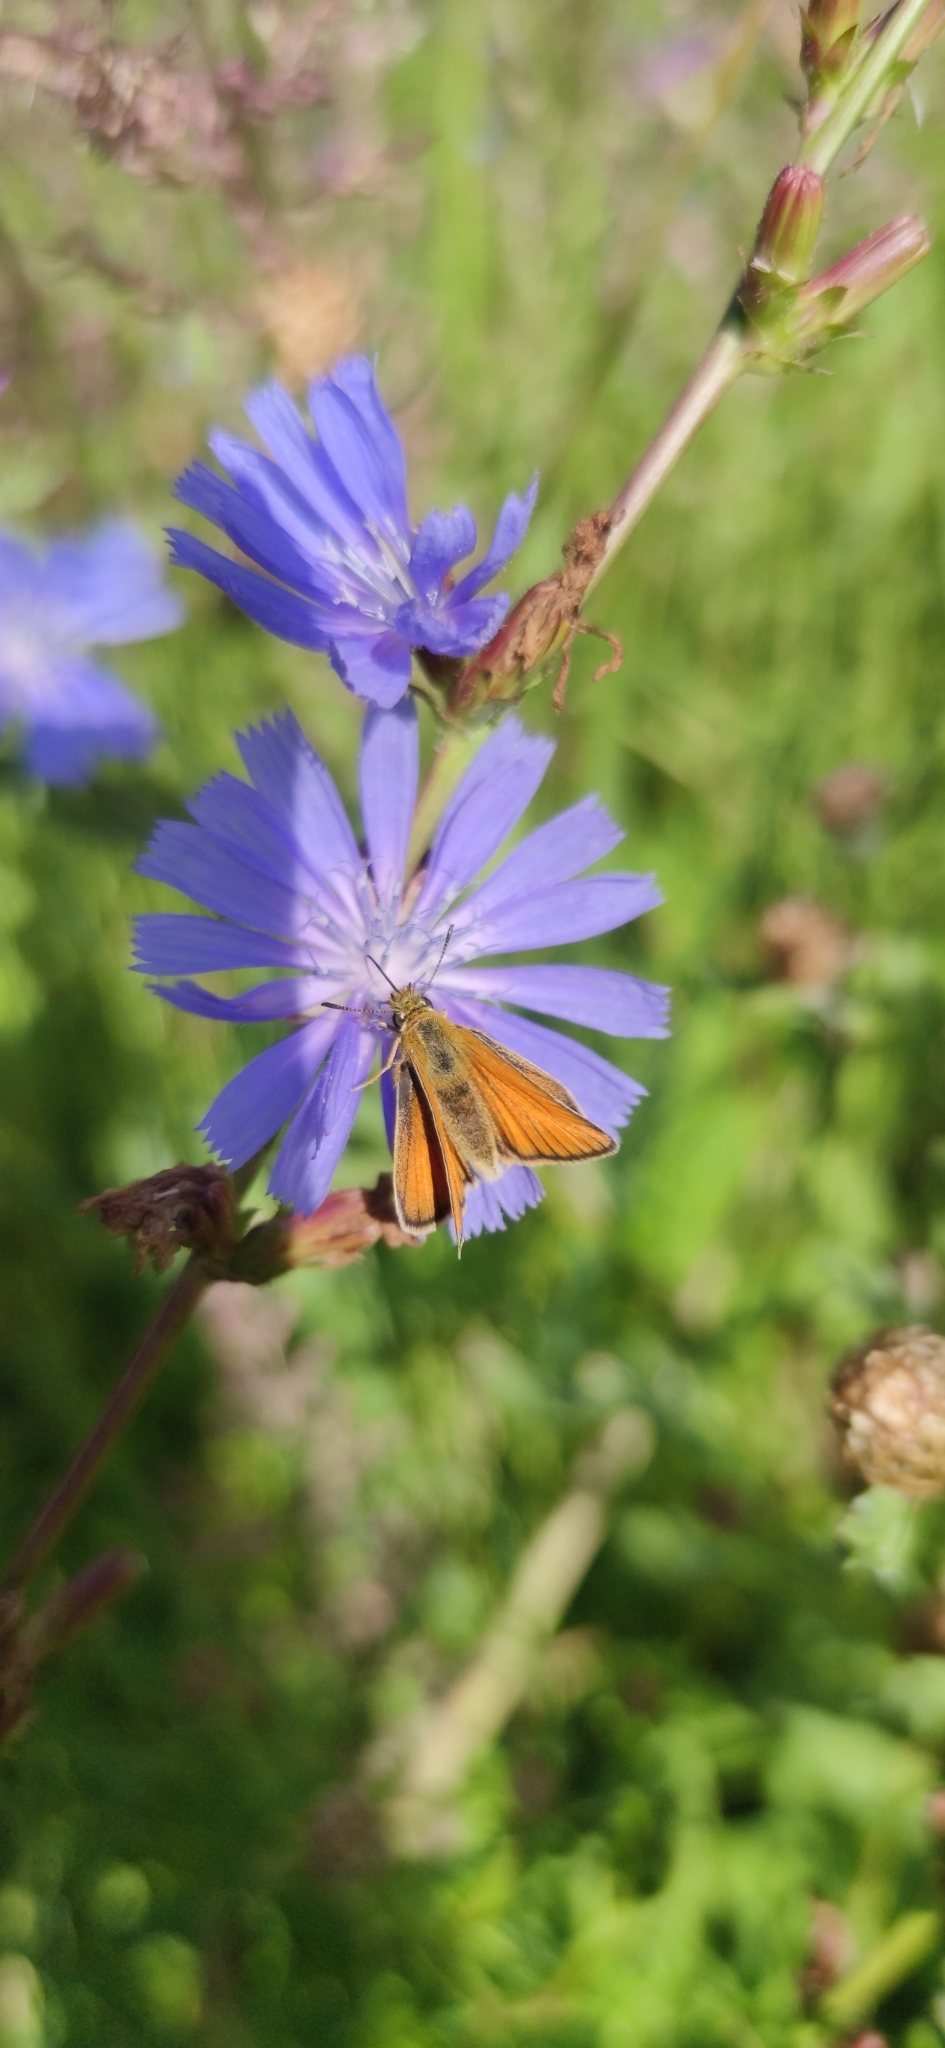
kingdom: Animalia
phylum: Arthropoda
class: Insecta
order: Lepidoptera
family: Hesperiidae
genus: Thymelicus
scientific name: Thymelicus lineola
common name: Essex skipper
